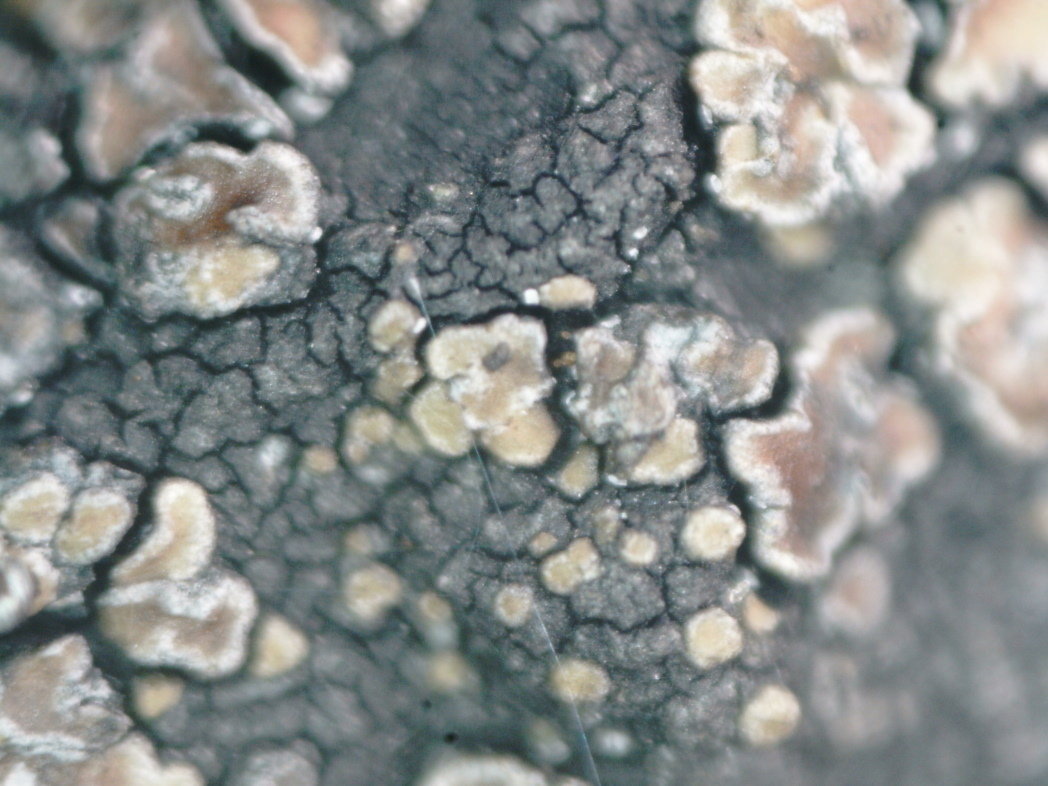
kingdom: Fungi
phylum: Ascomycota
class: Lecanoromycetes
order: Lecanorales
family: Lecanoraceae
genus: Miriquidica
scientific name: Miriquidica deusta
